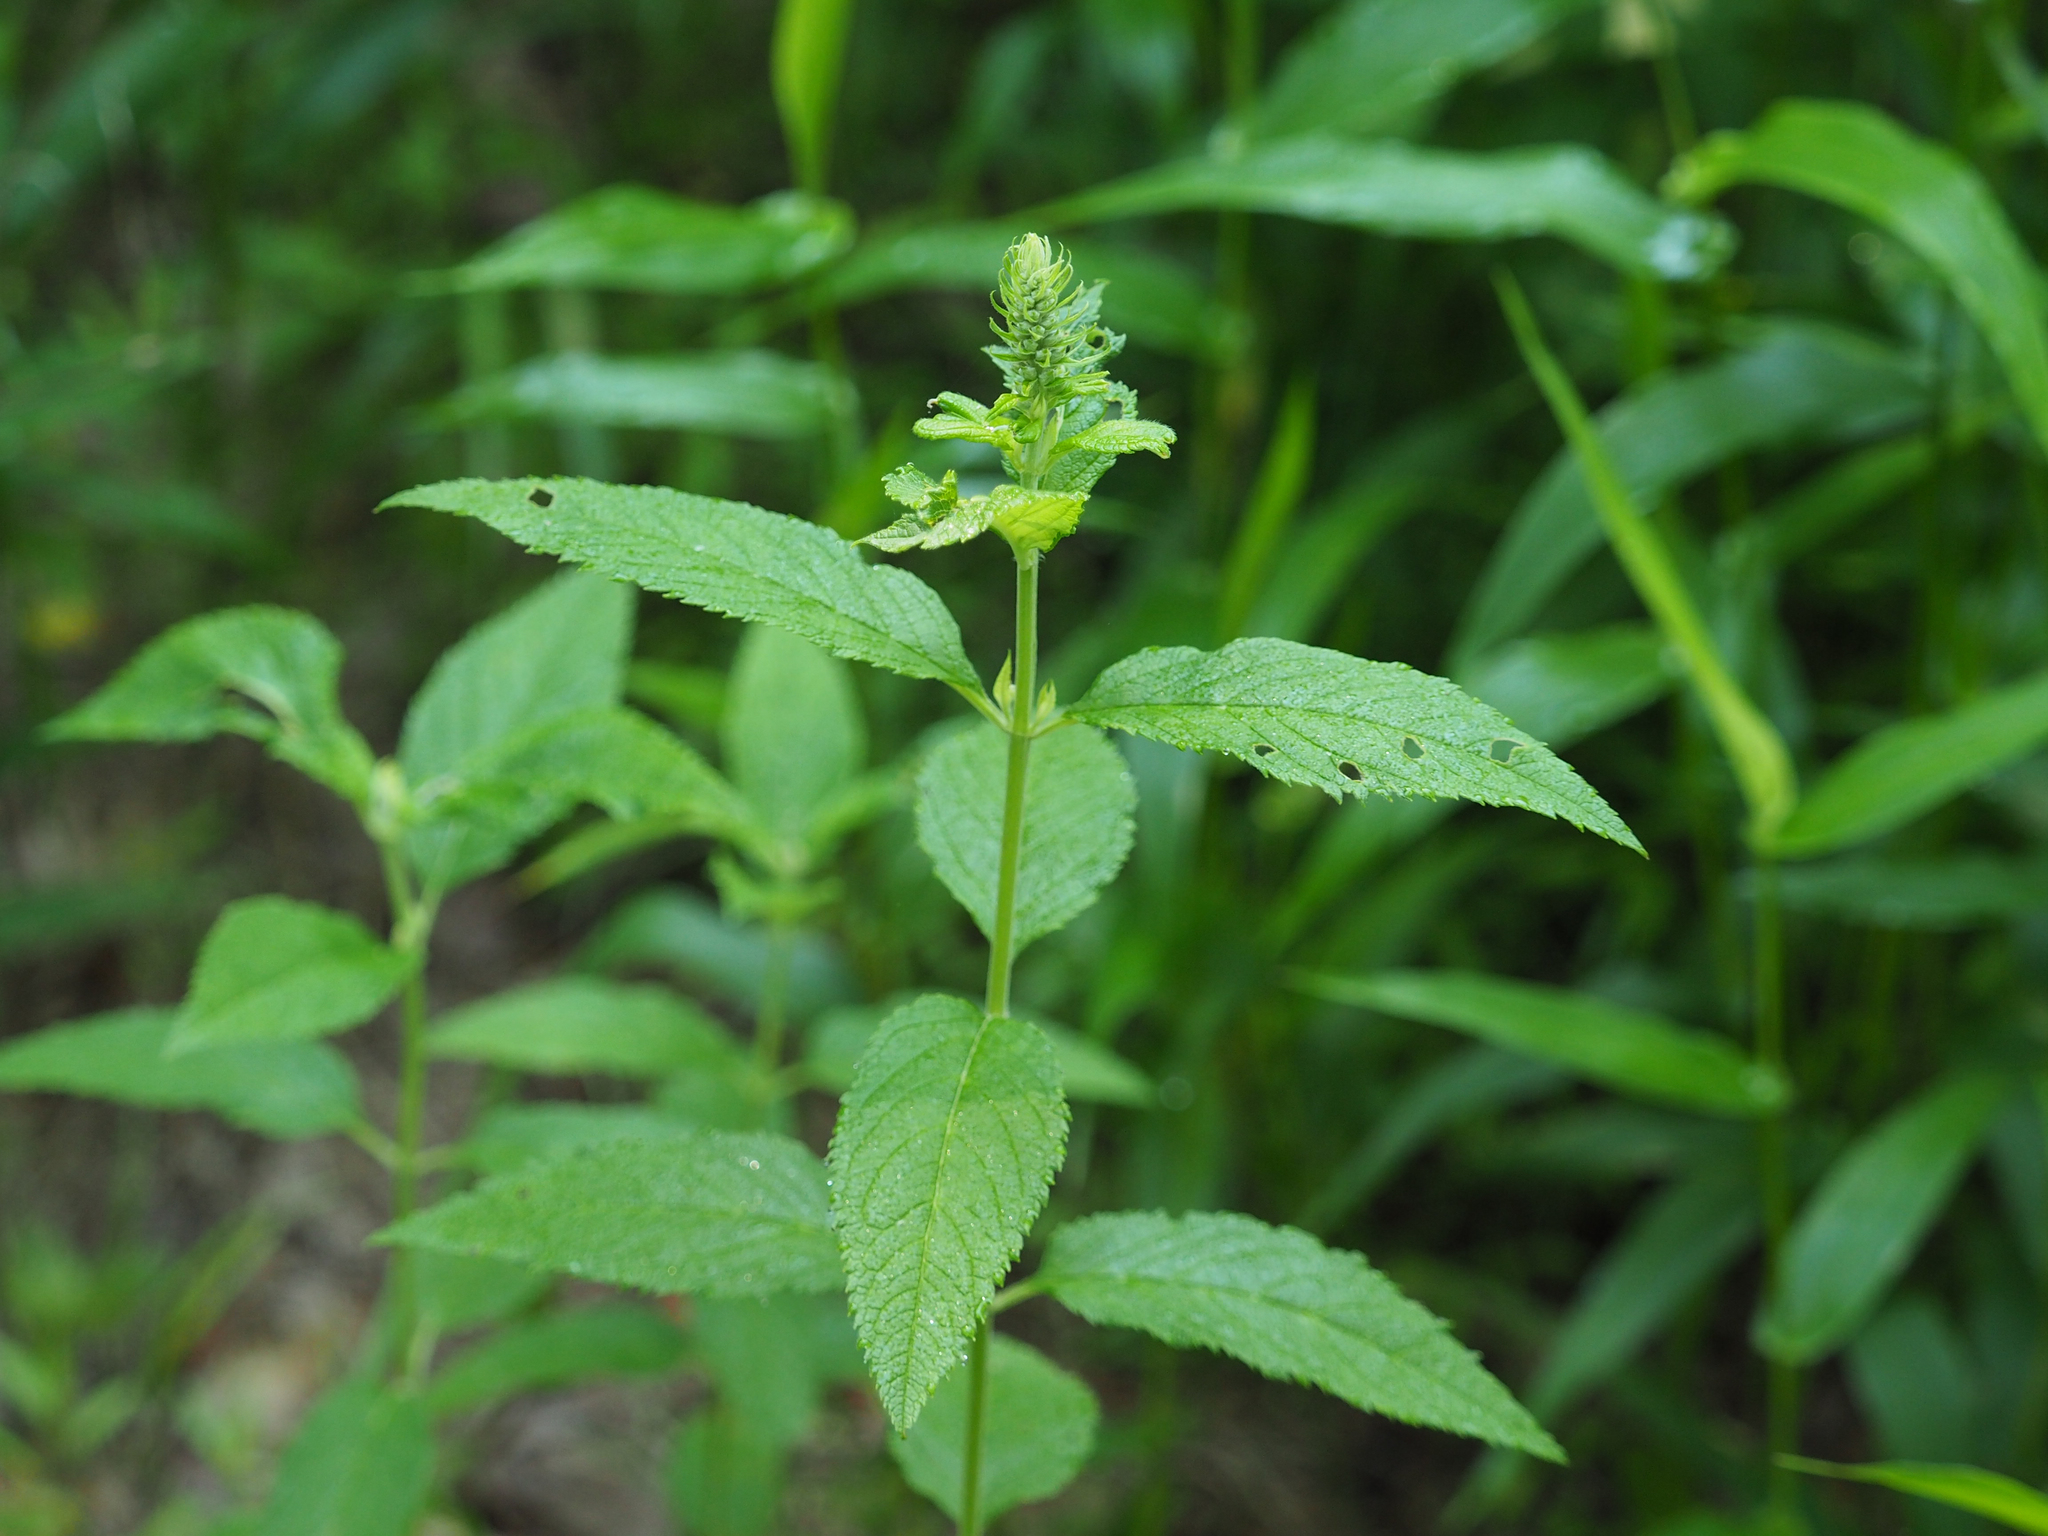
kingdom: Plantae
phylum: Tracheophyta
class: Magnoliopsida
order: Lamiales
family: Lamiaceae
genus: Teucrium
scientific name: Teucrium canadense
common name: American germander
